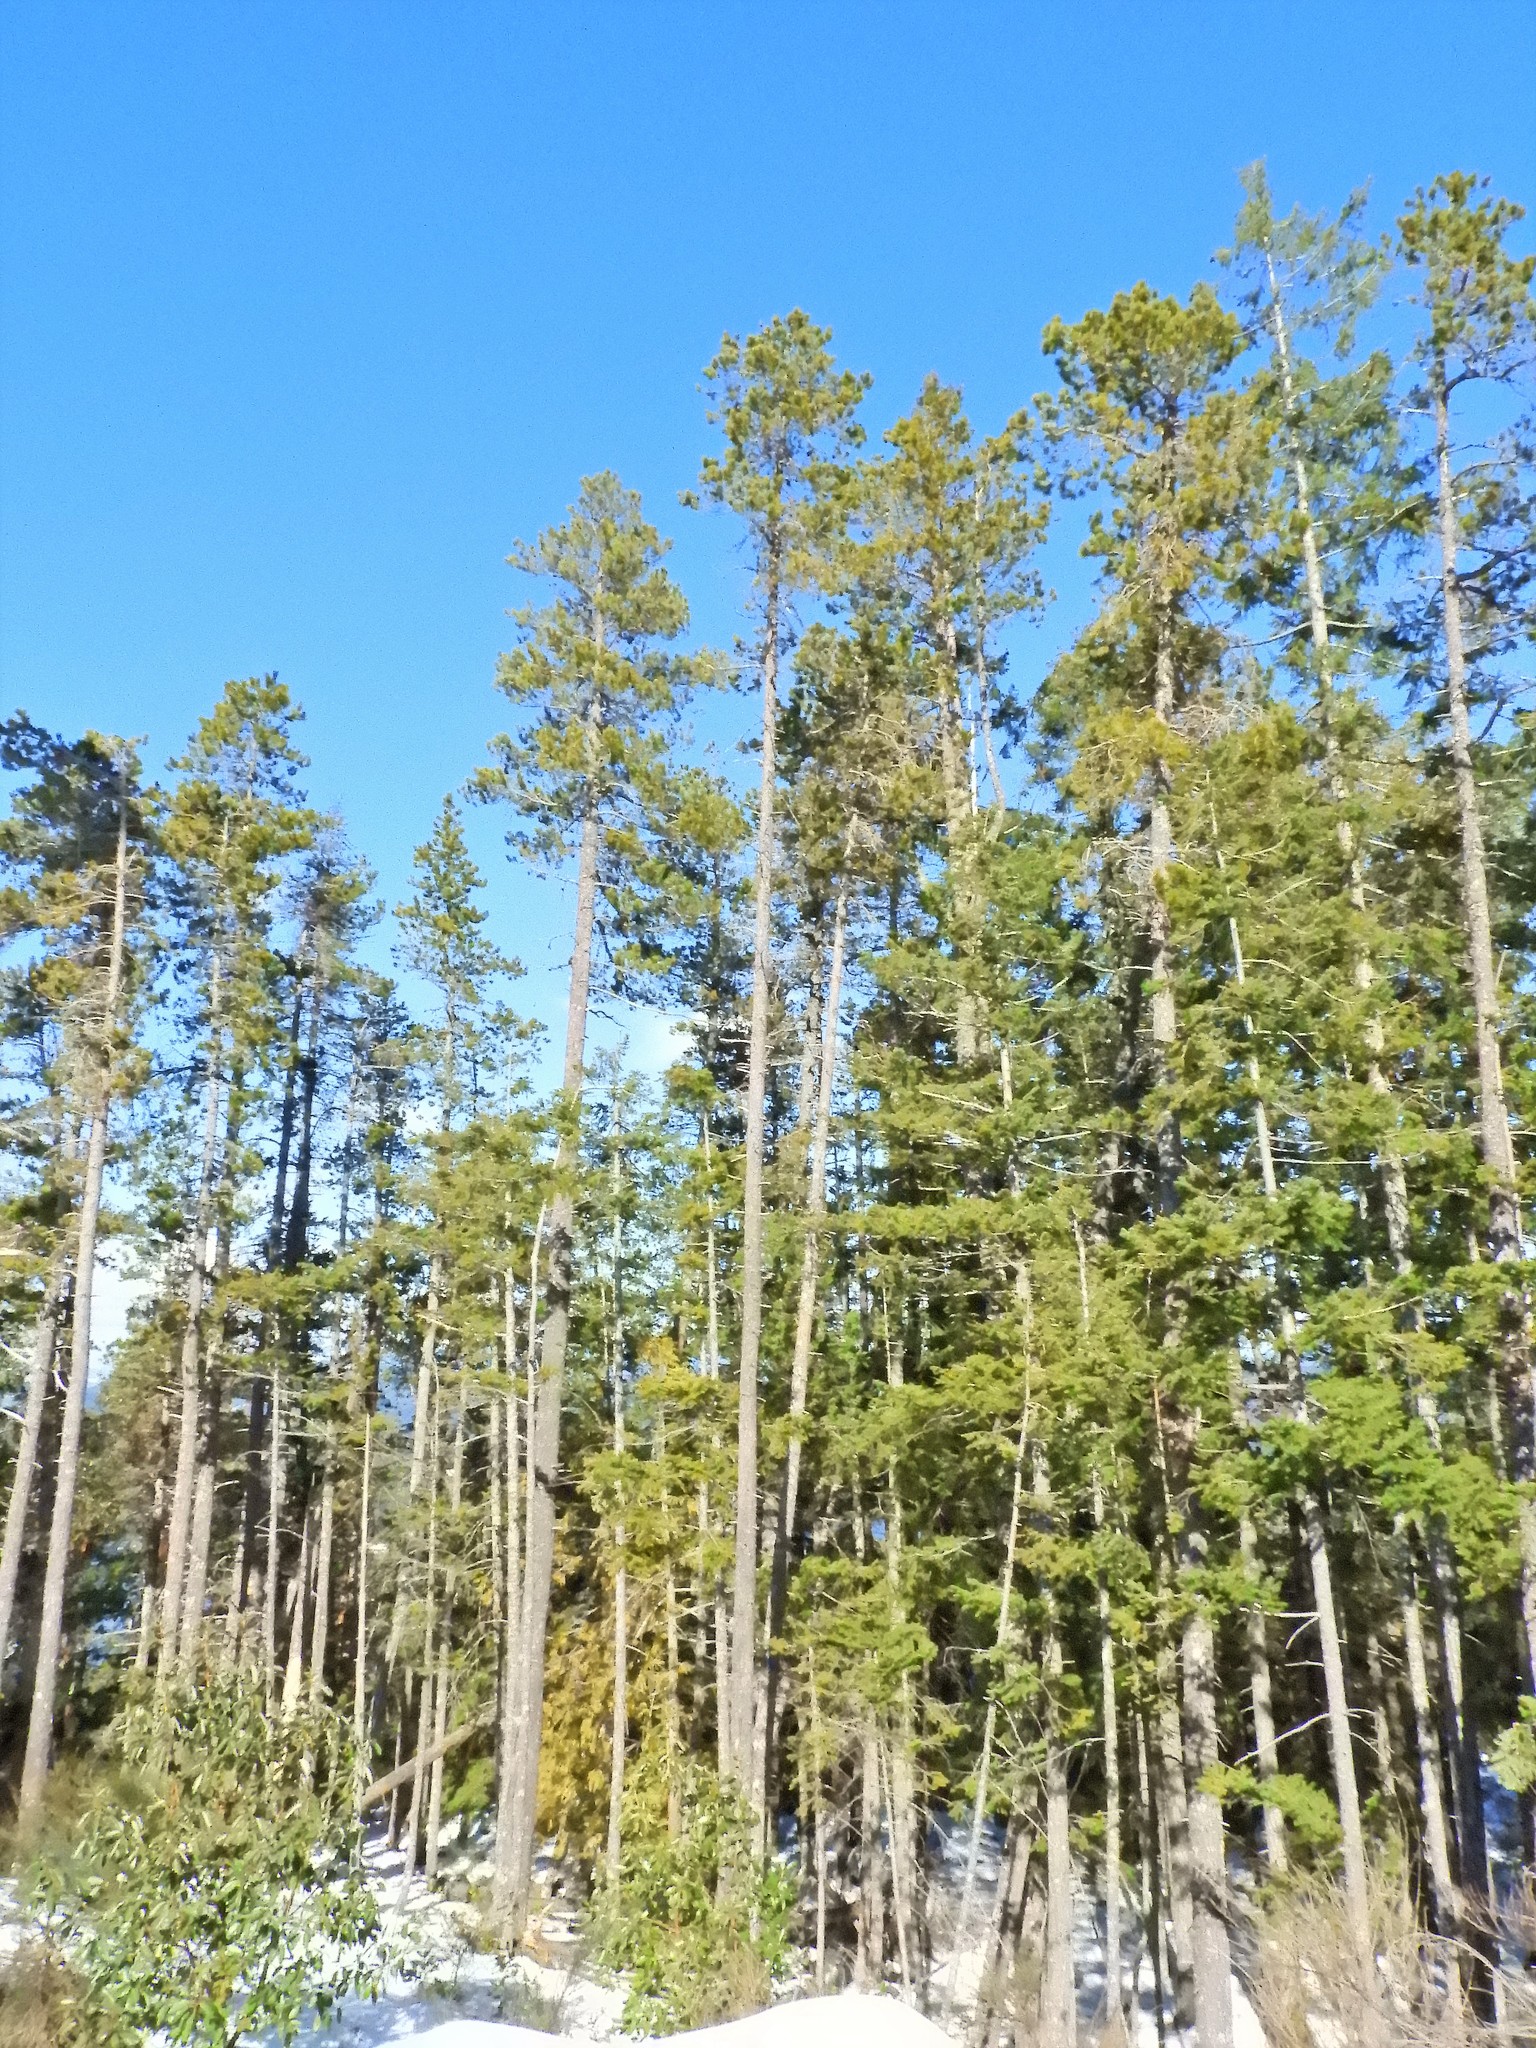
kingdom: Plantae
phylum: Tracheophyta
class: Pinopsida
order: Pinales
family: Pinaceae
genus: Pinus
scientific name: Pinus contorta
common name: Lodgepole pine
